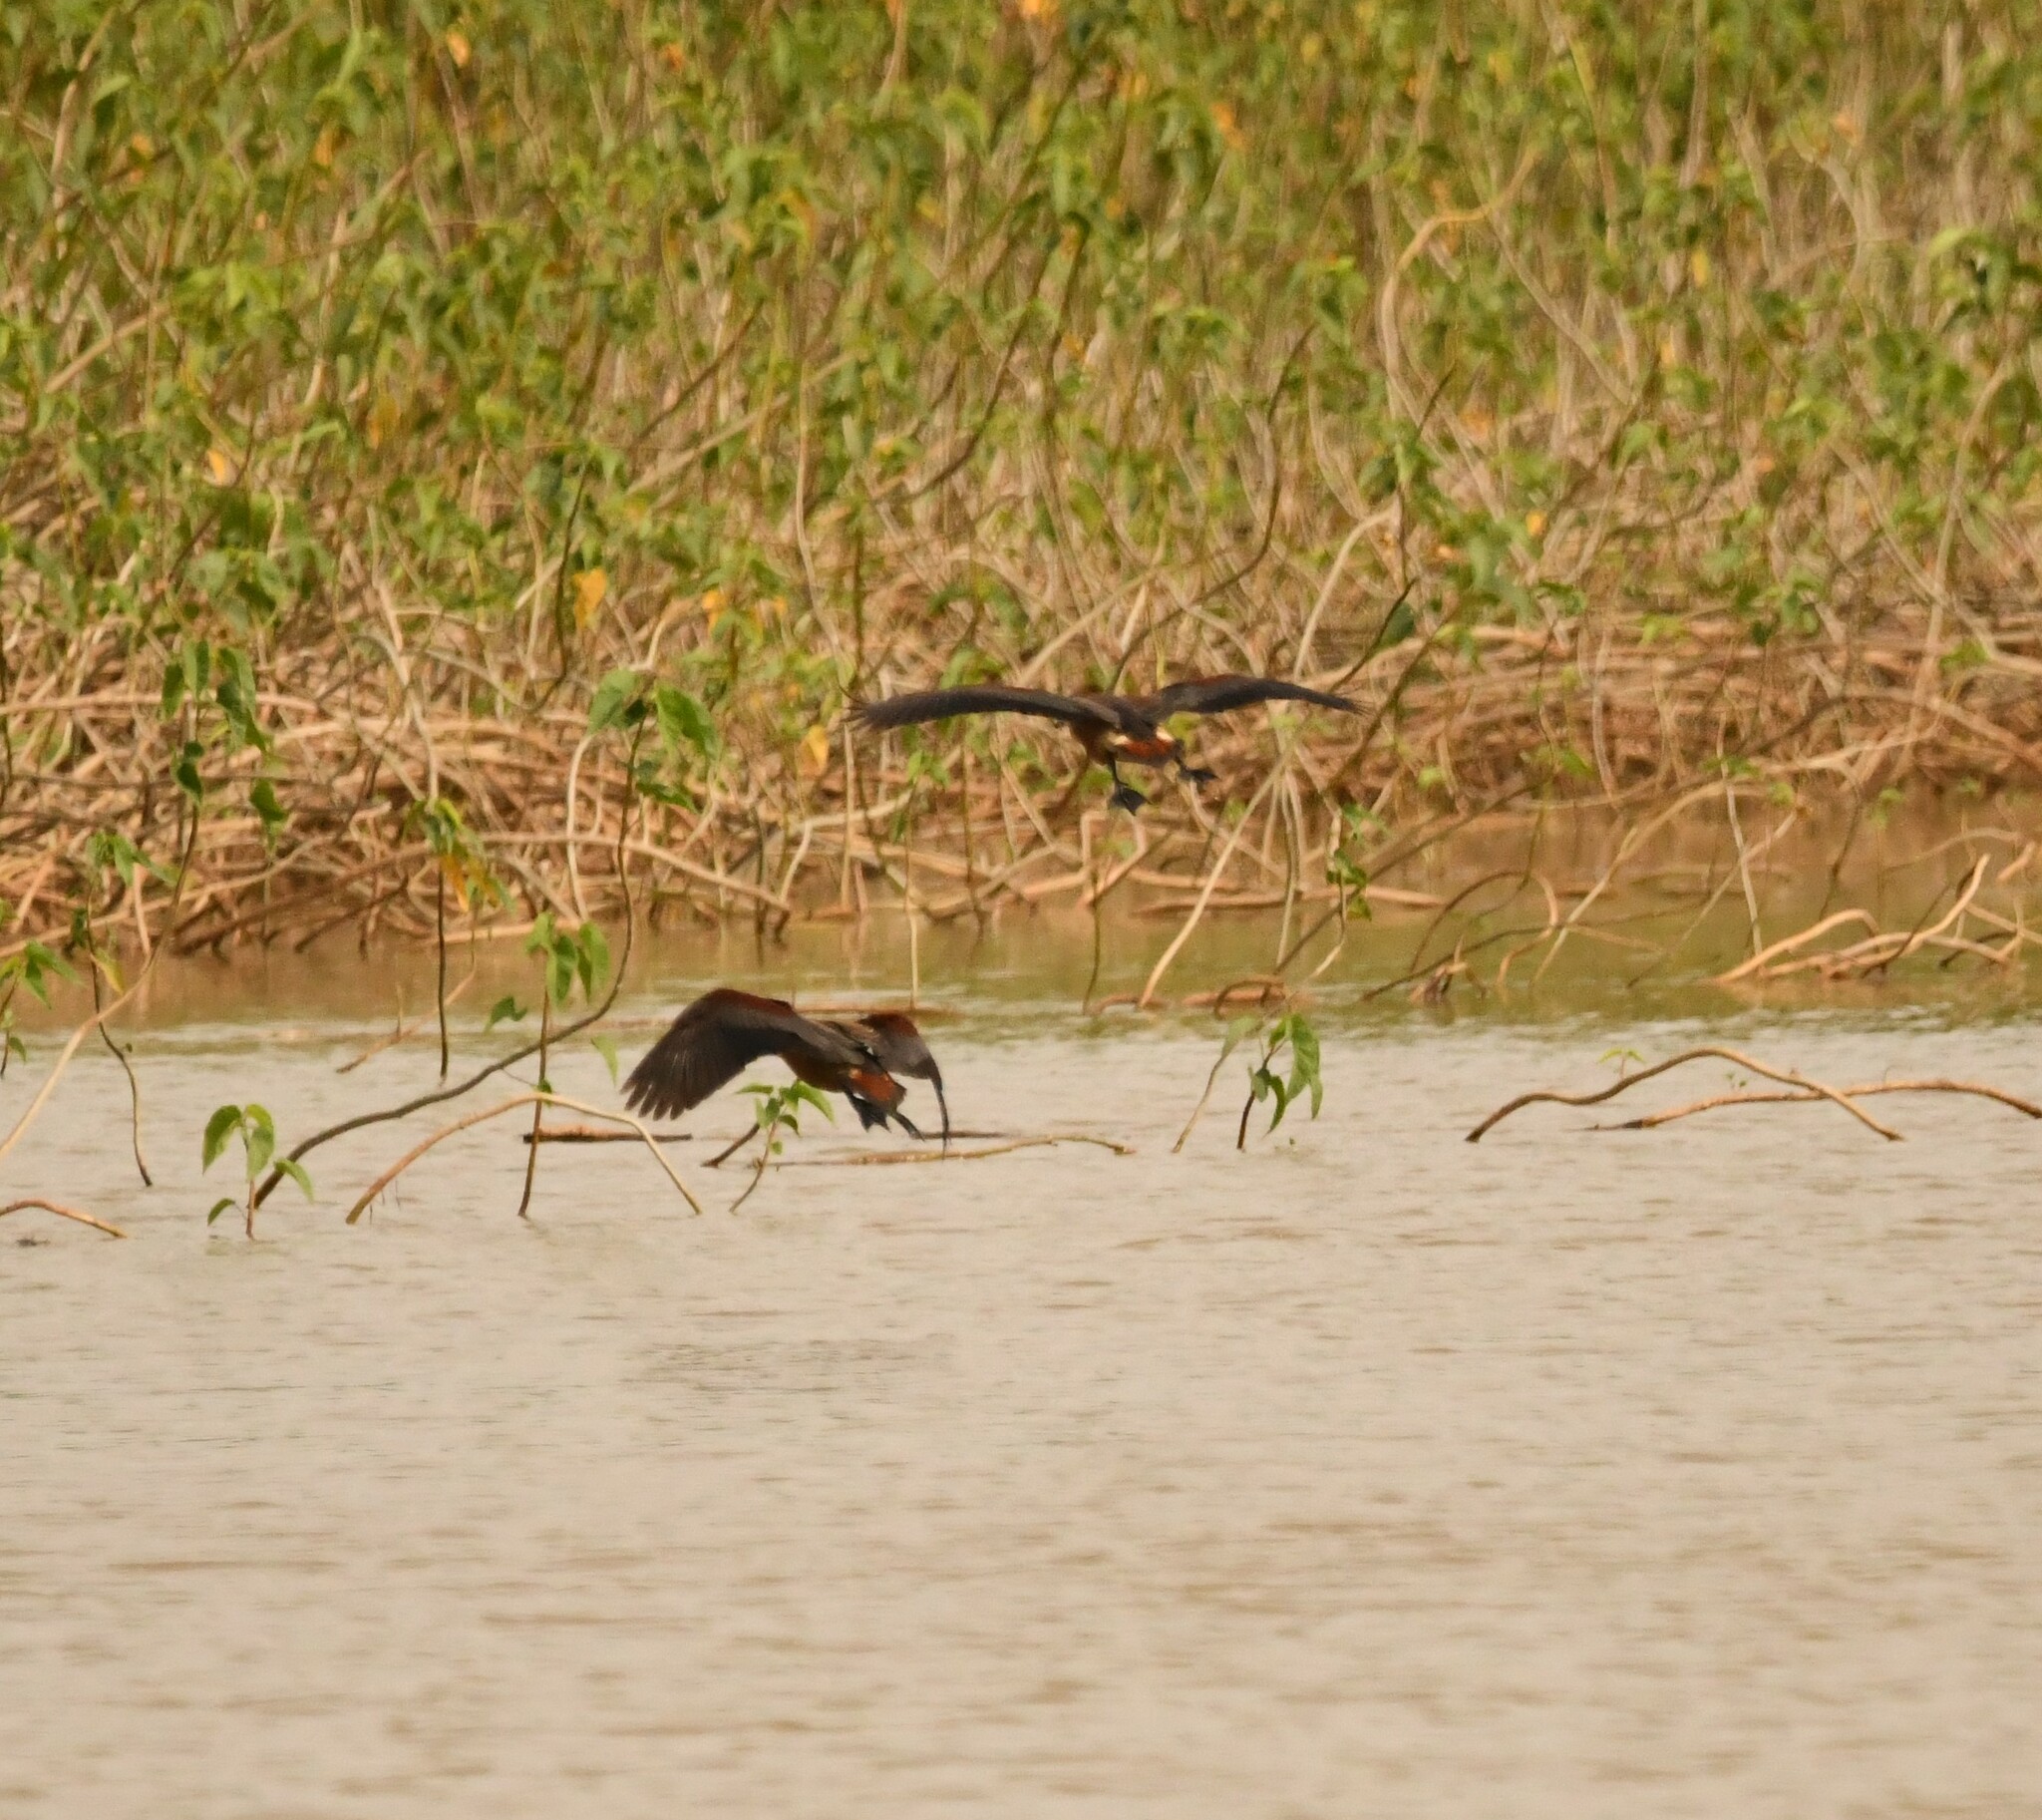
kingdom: Animalia
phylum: Chordata
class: Aves
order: Anseriformes
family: Anatidae
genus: Dendrocygna
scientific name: Dendrocygna javanica
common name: Lesser whistling-duck
